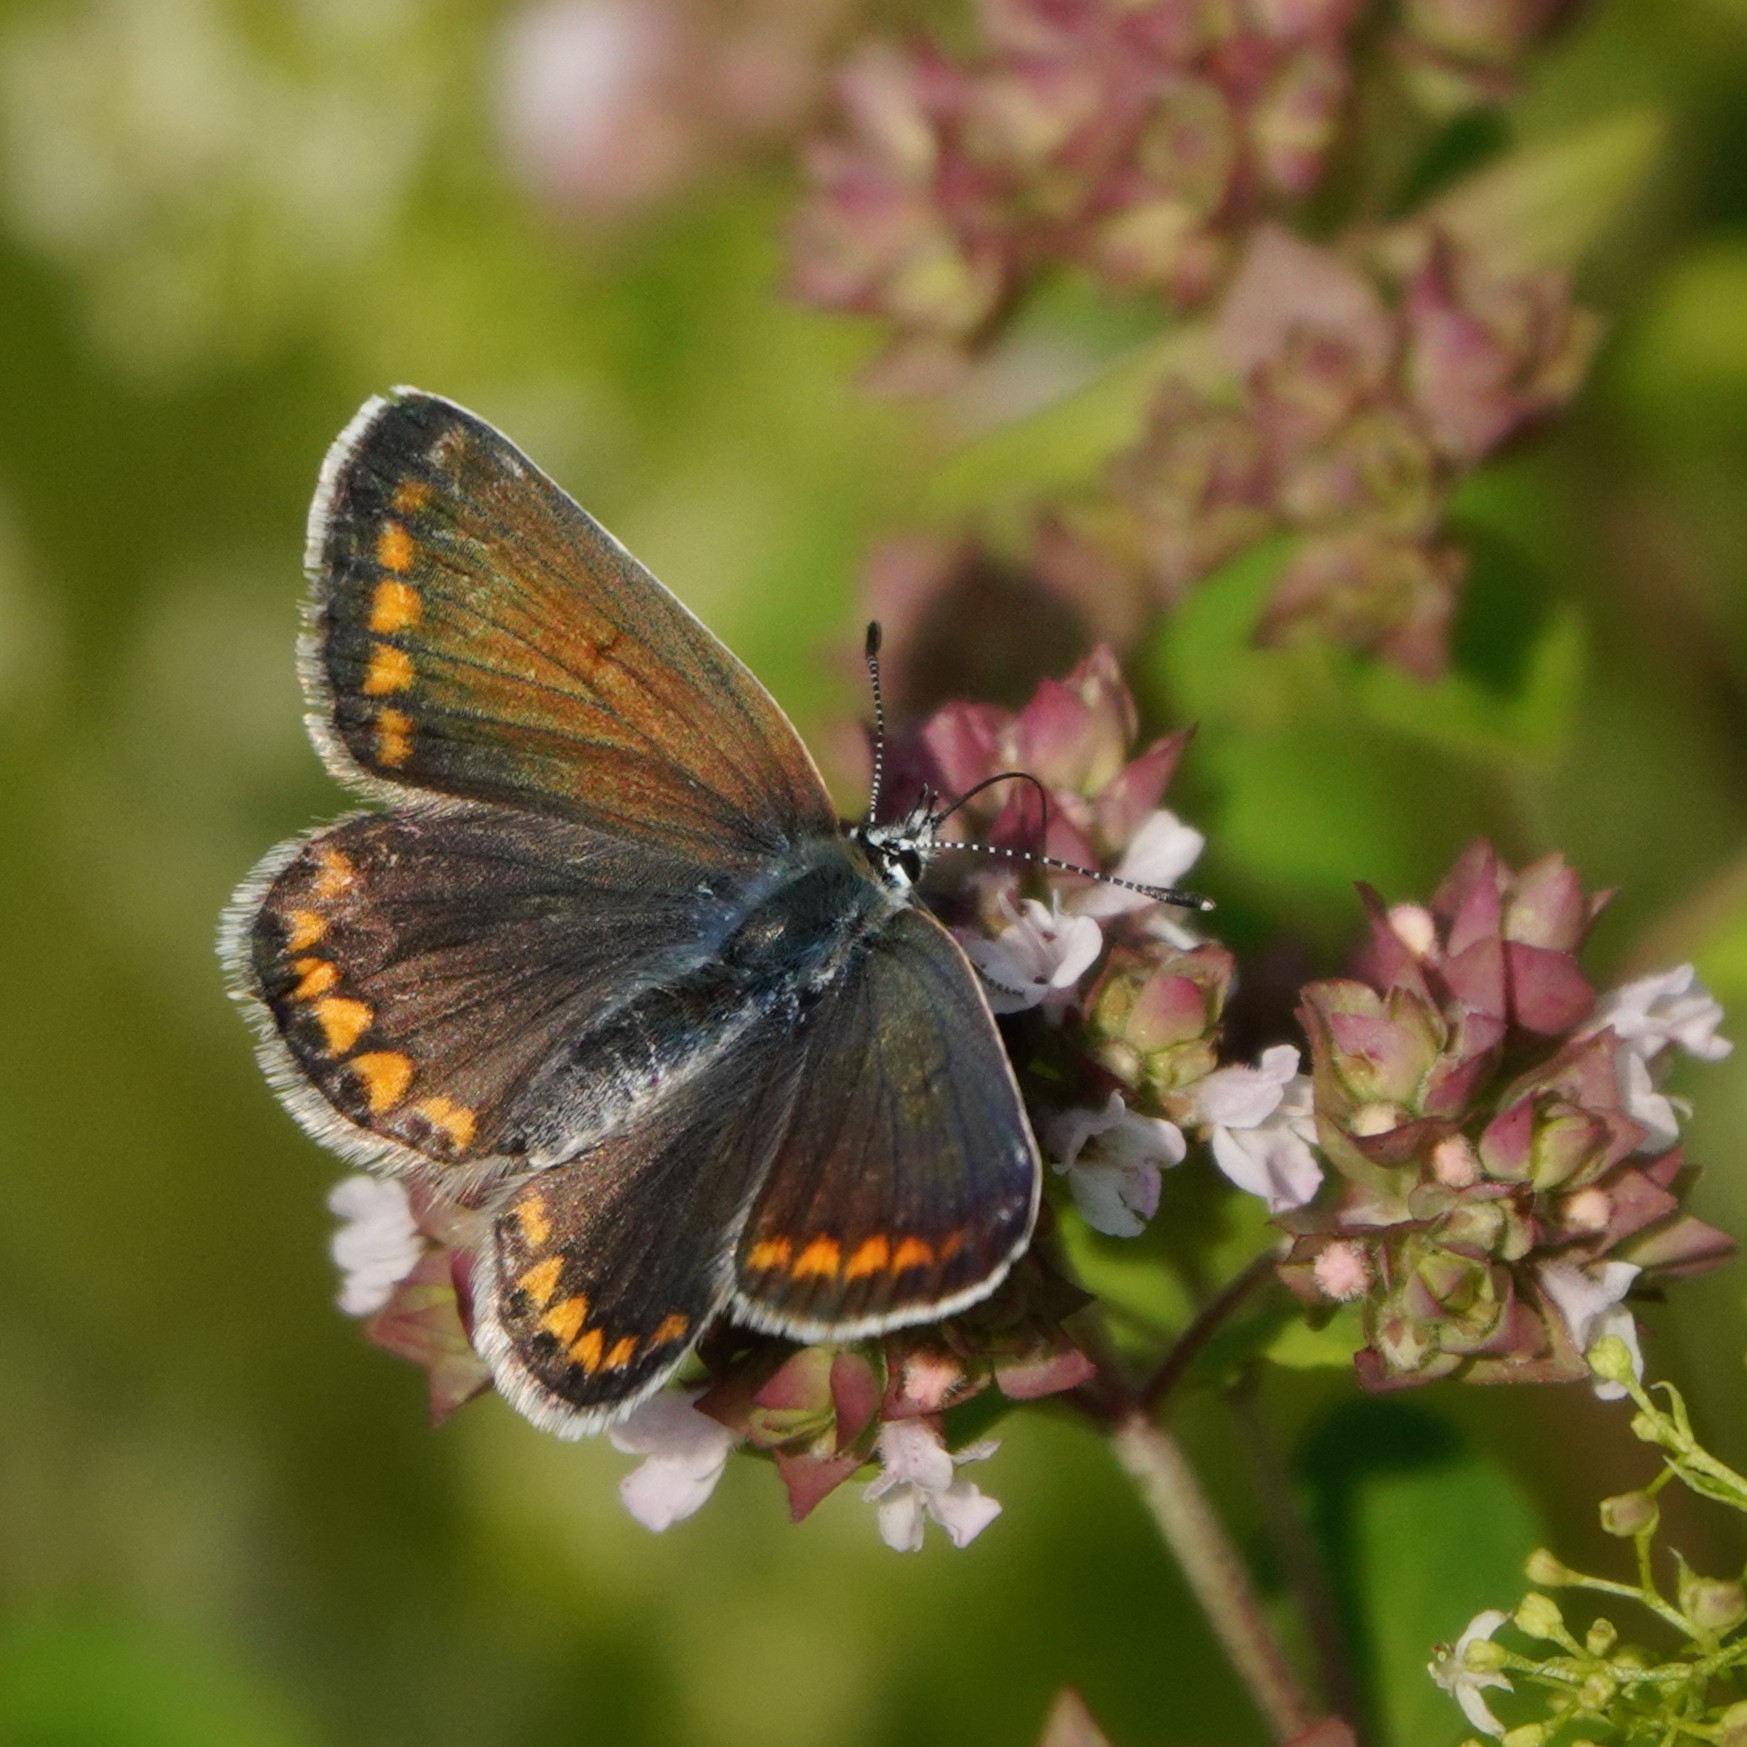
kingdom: Animalia
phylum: Arthropoda
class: Insecta
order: Lepidoptera
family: Lycaenidae
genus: Polyommatus
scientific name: Polyommatus icarus
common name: Common blue
